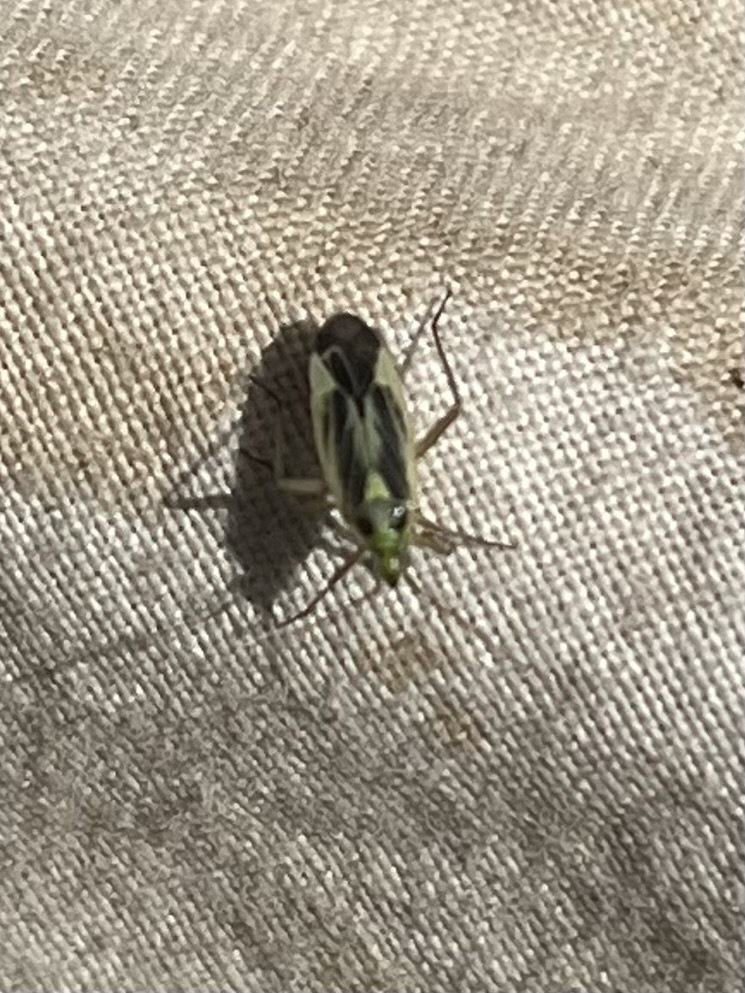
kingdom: Animalia
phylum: Arthropoda
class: Insecta
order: Hemiptera
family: Miridae
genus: Stenotus
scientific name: Stenotus binotatus
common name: Plant bug
